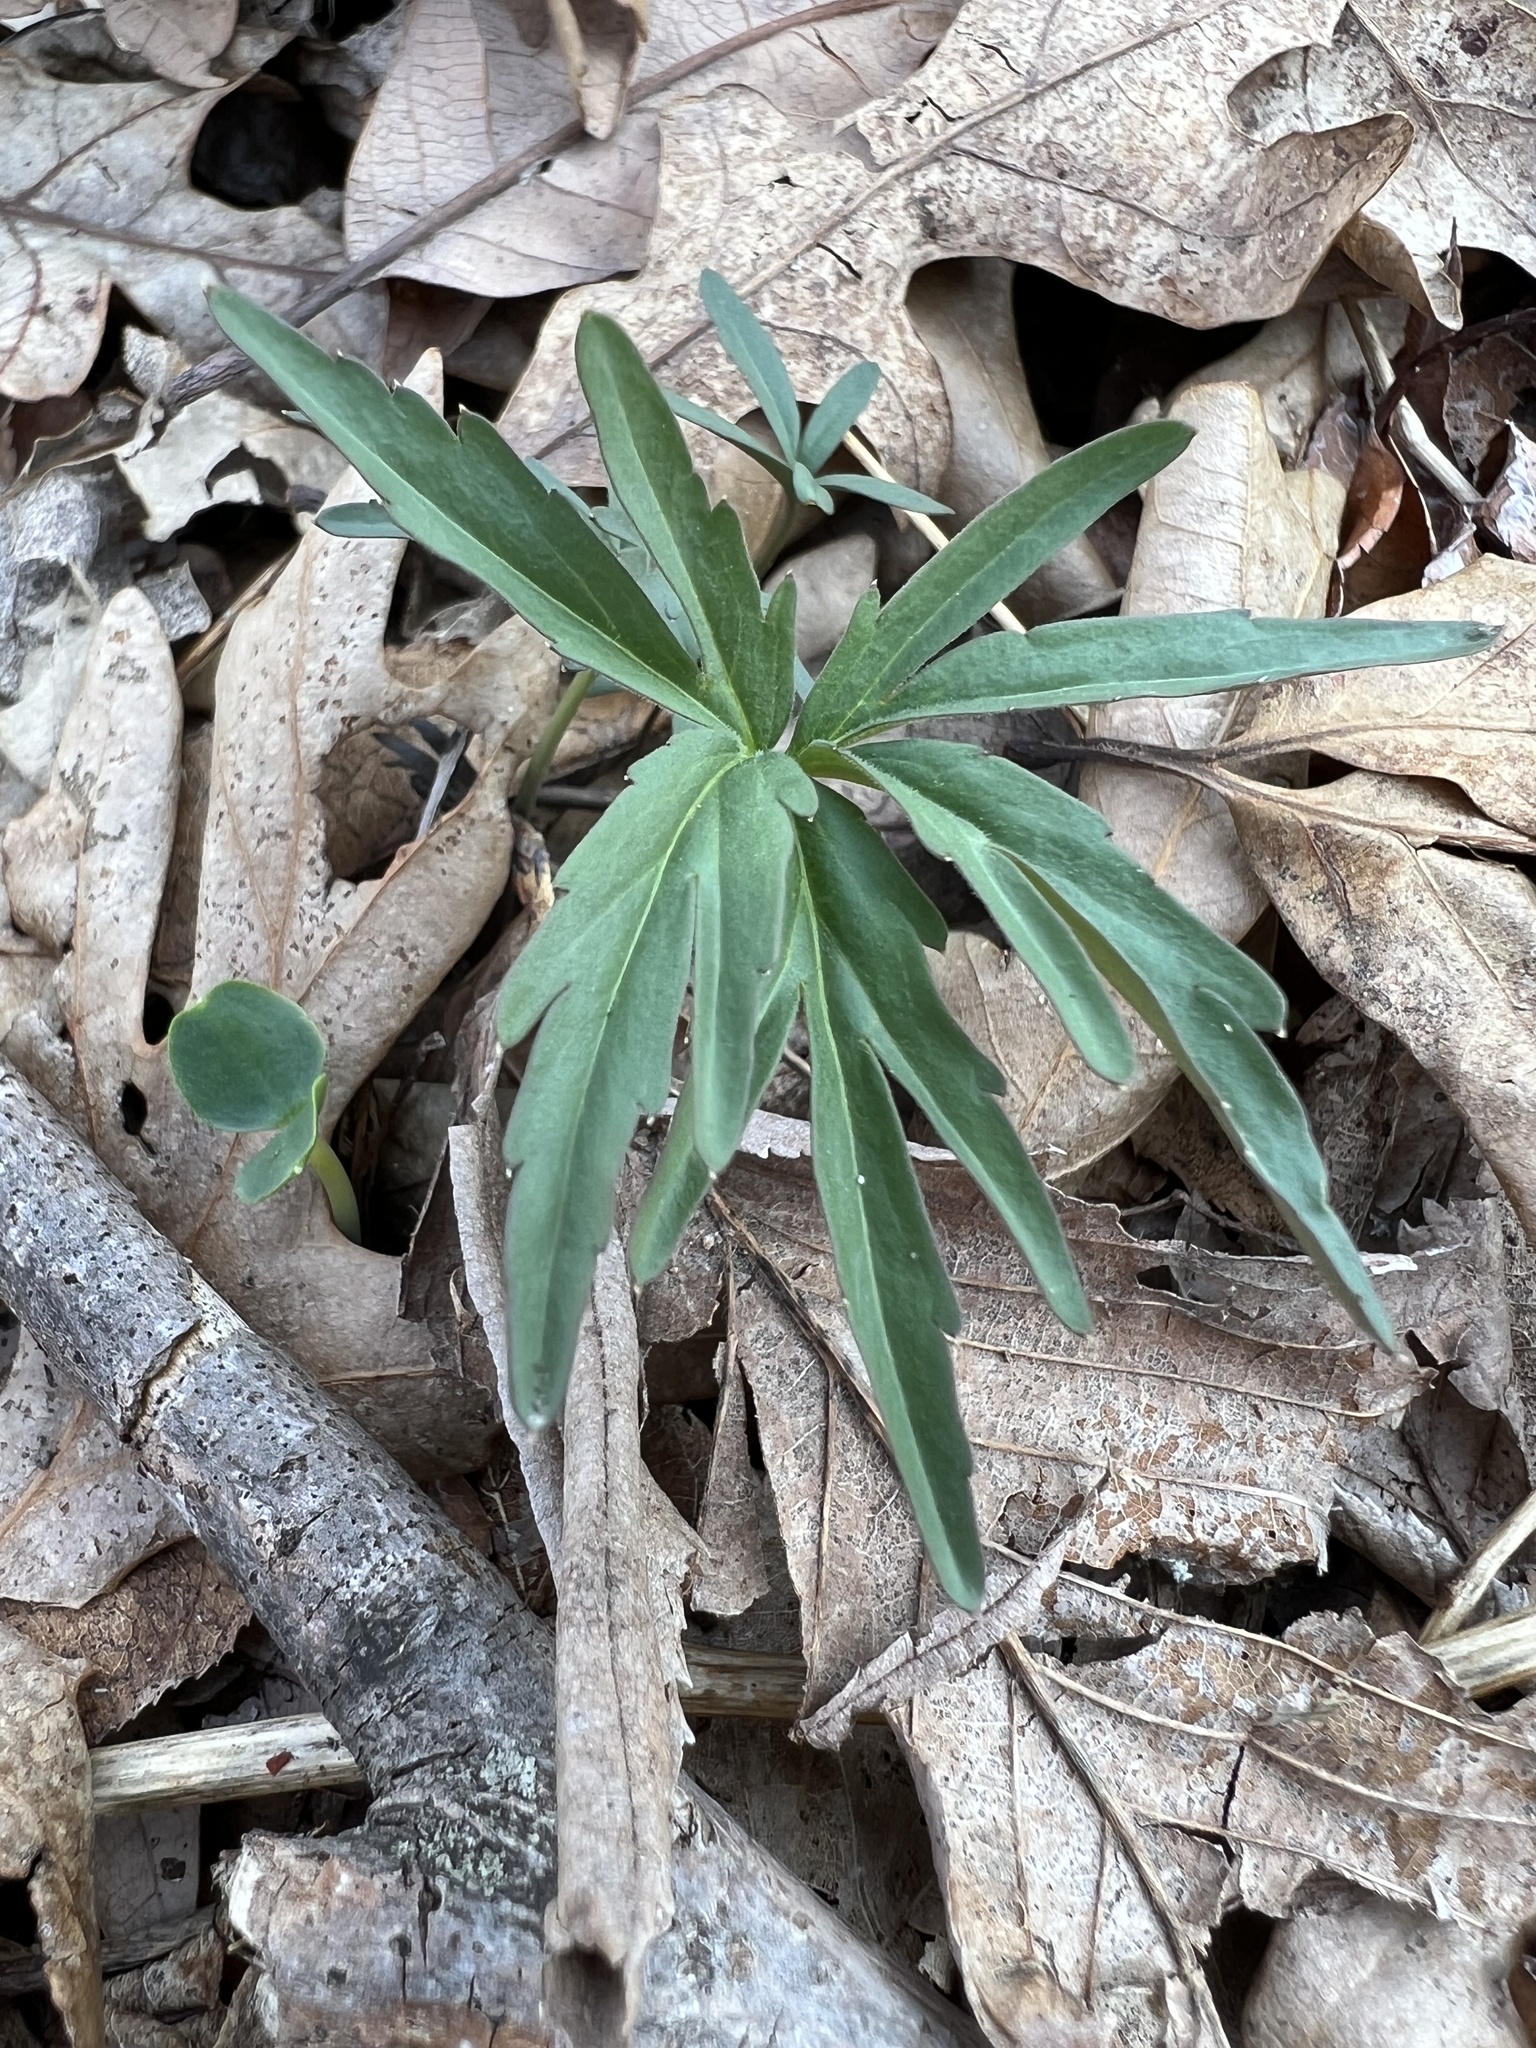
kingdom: Plantae
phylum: Tracheophyta
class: Magnoliopsida
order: Brassicales
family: Brassicaceae
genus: Cardamine
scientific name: Cardamine concatenata
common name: Cut-leaf toothcup
